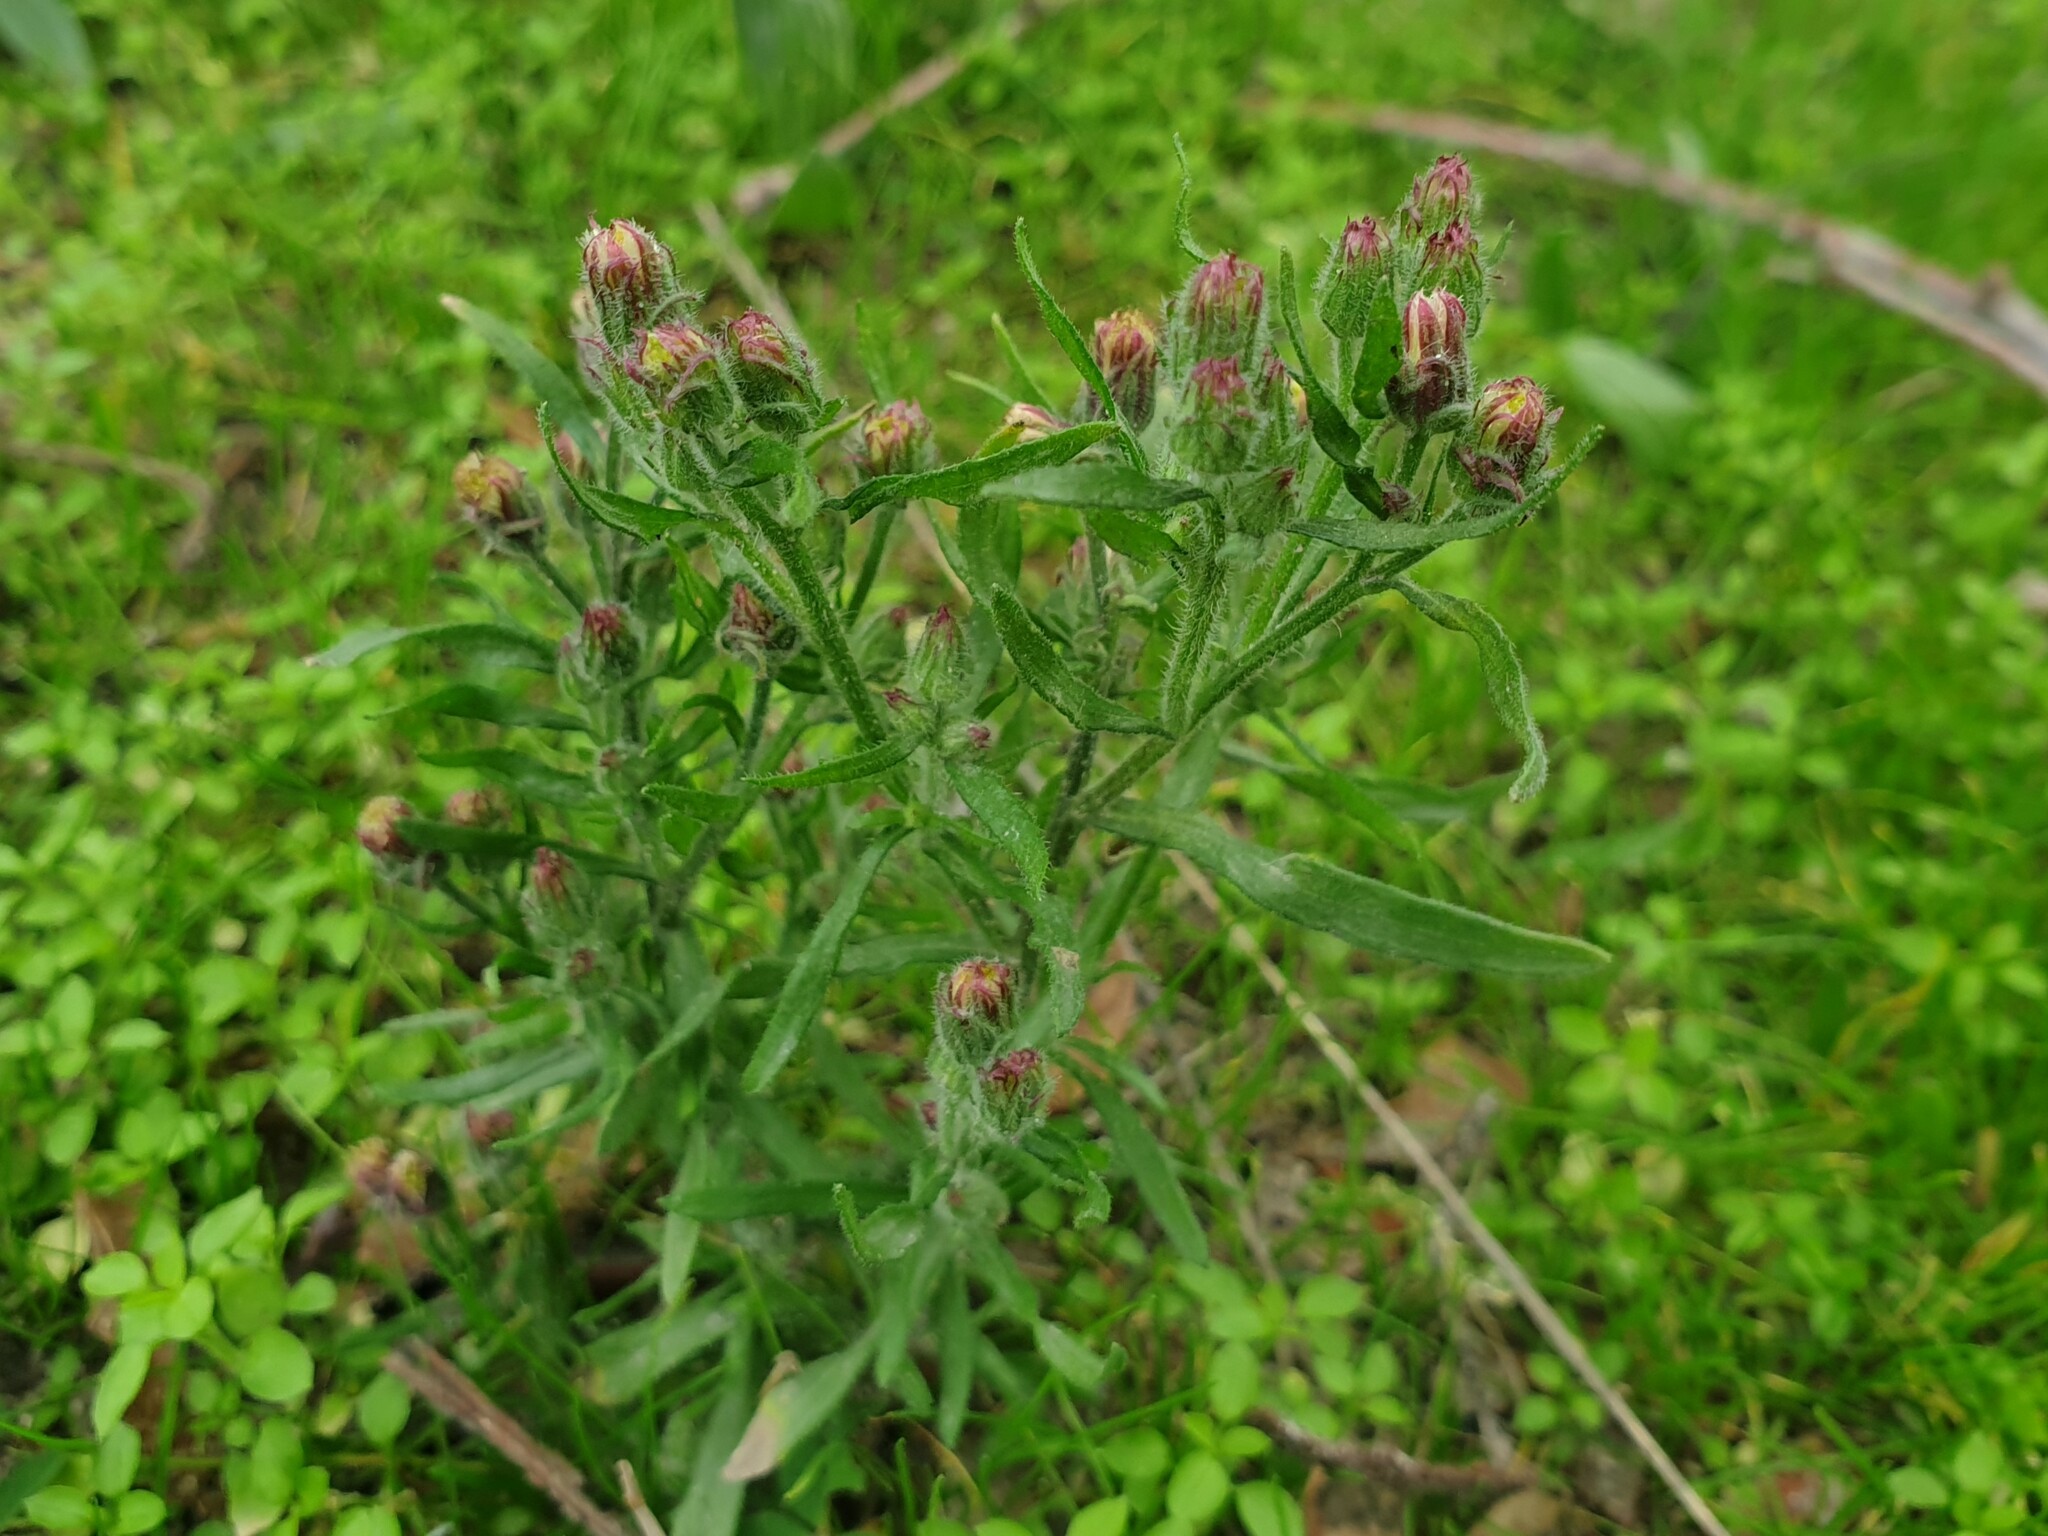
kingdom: Plantae
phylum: Tracheophyta
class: Magnoliopsida
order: Asterales
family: Asteraceae
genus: Erigeron
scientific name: Erigeron bonariensis
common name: Argentine fleabane
